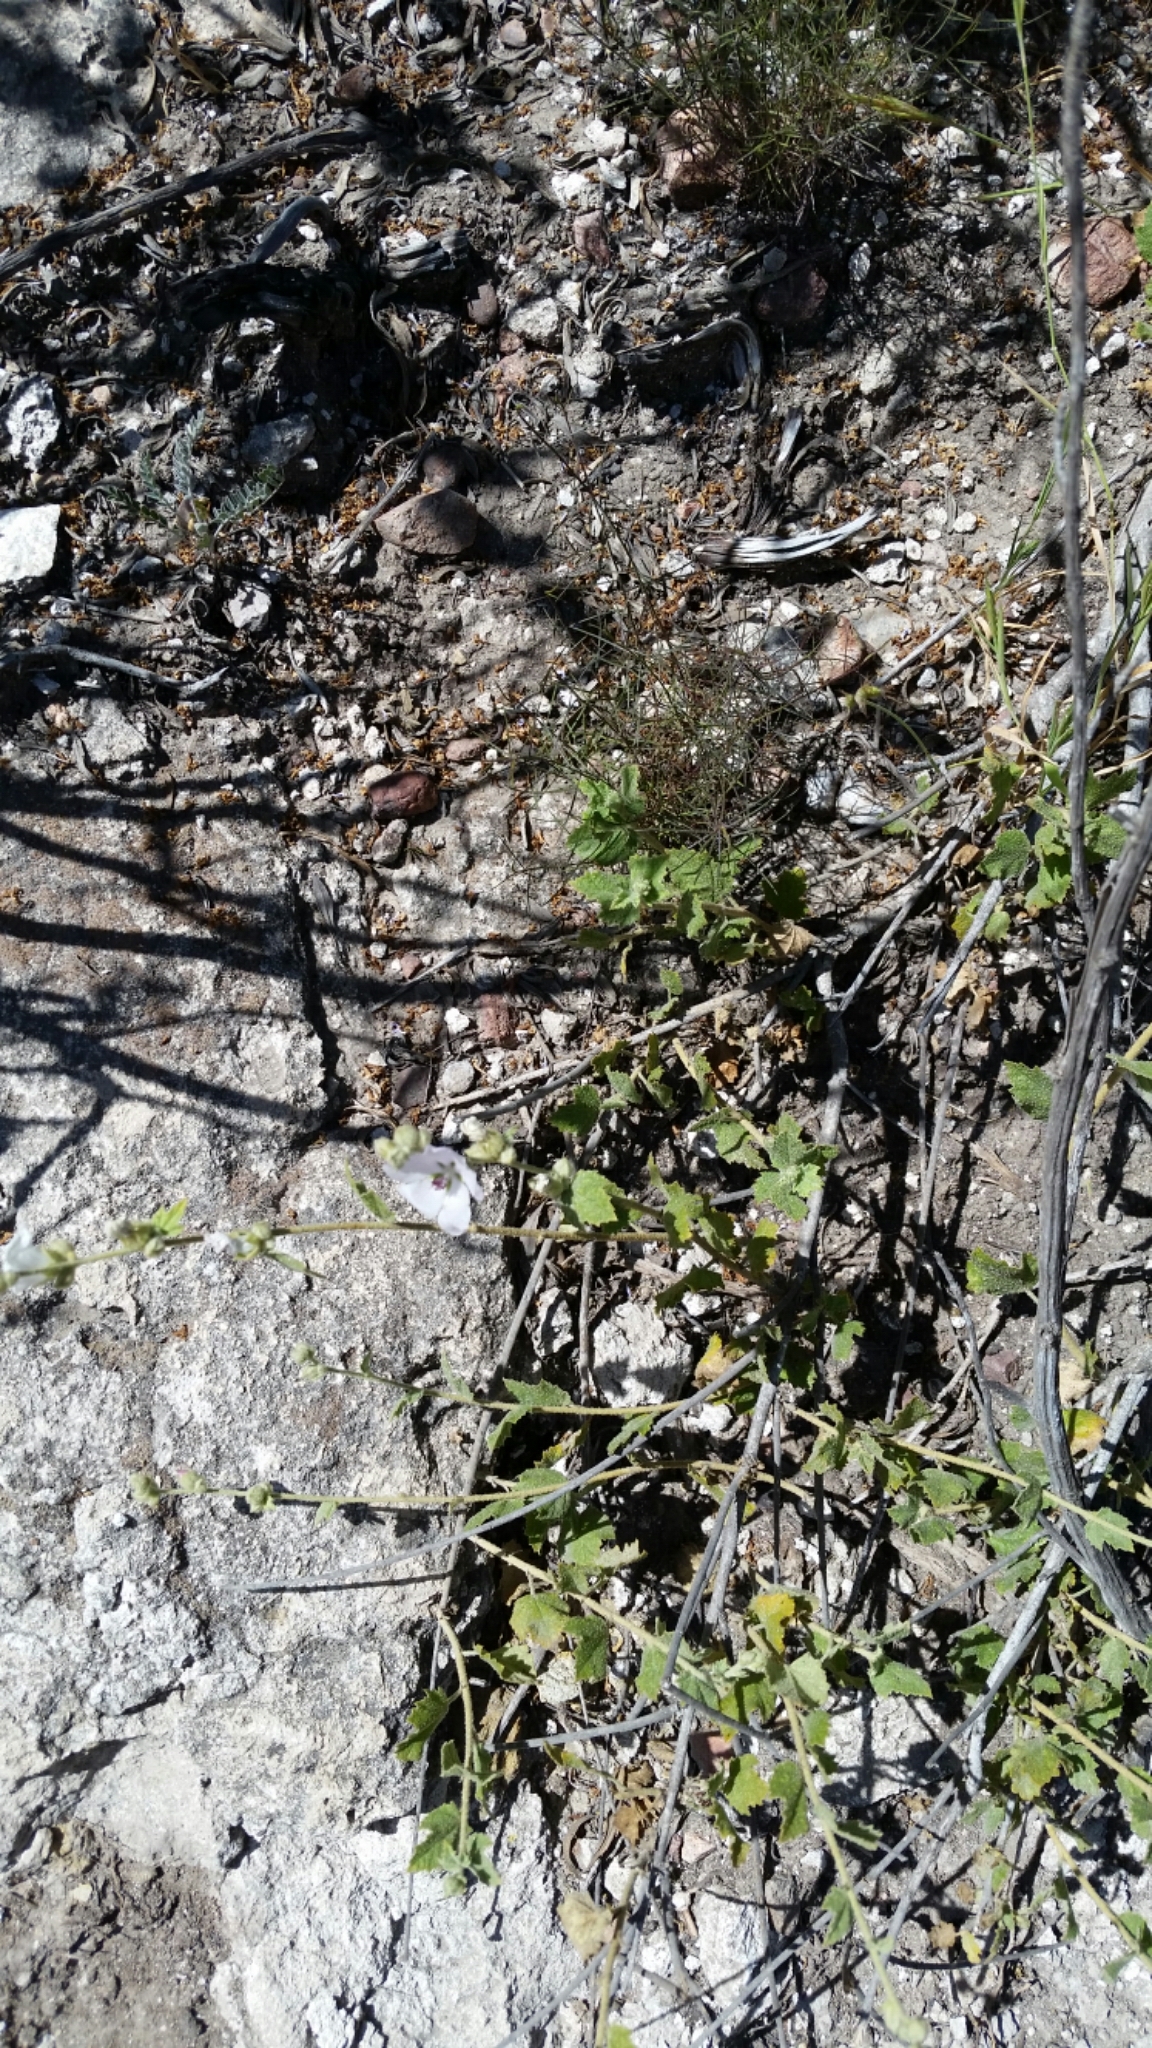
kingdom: Plantae
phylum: Tracheophyta
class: Magnoliopsida
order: Malvales
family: Malvaceae
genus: Malacothamnus
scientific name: Malacothamnus fasciculatus
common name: Sant cruz island bush-mallow
